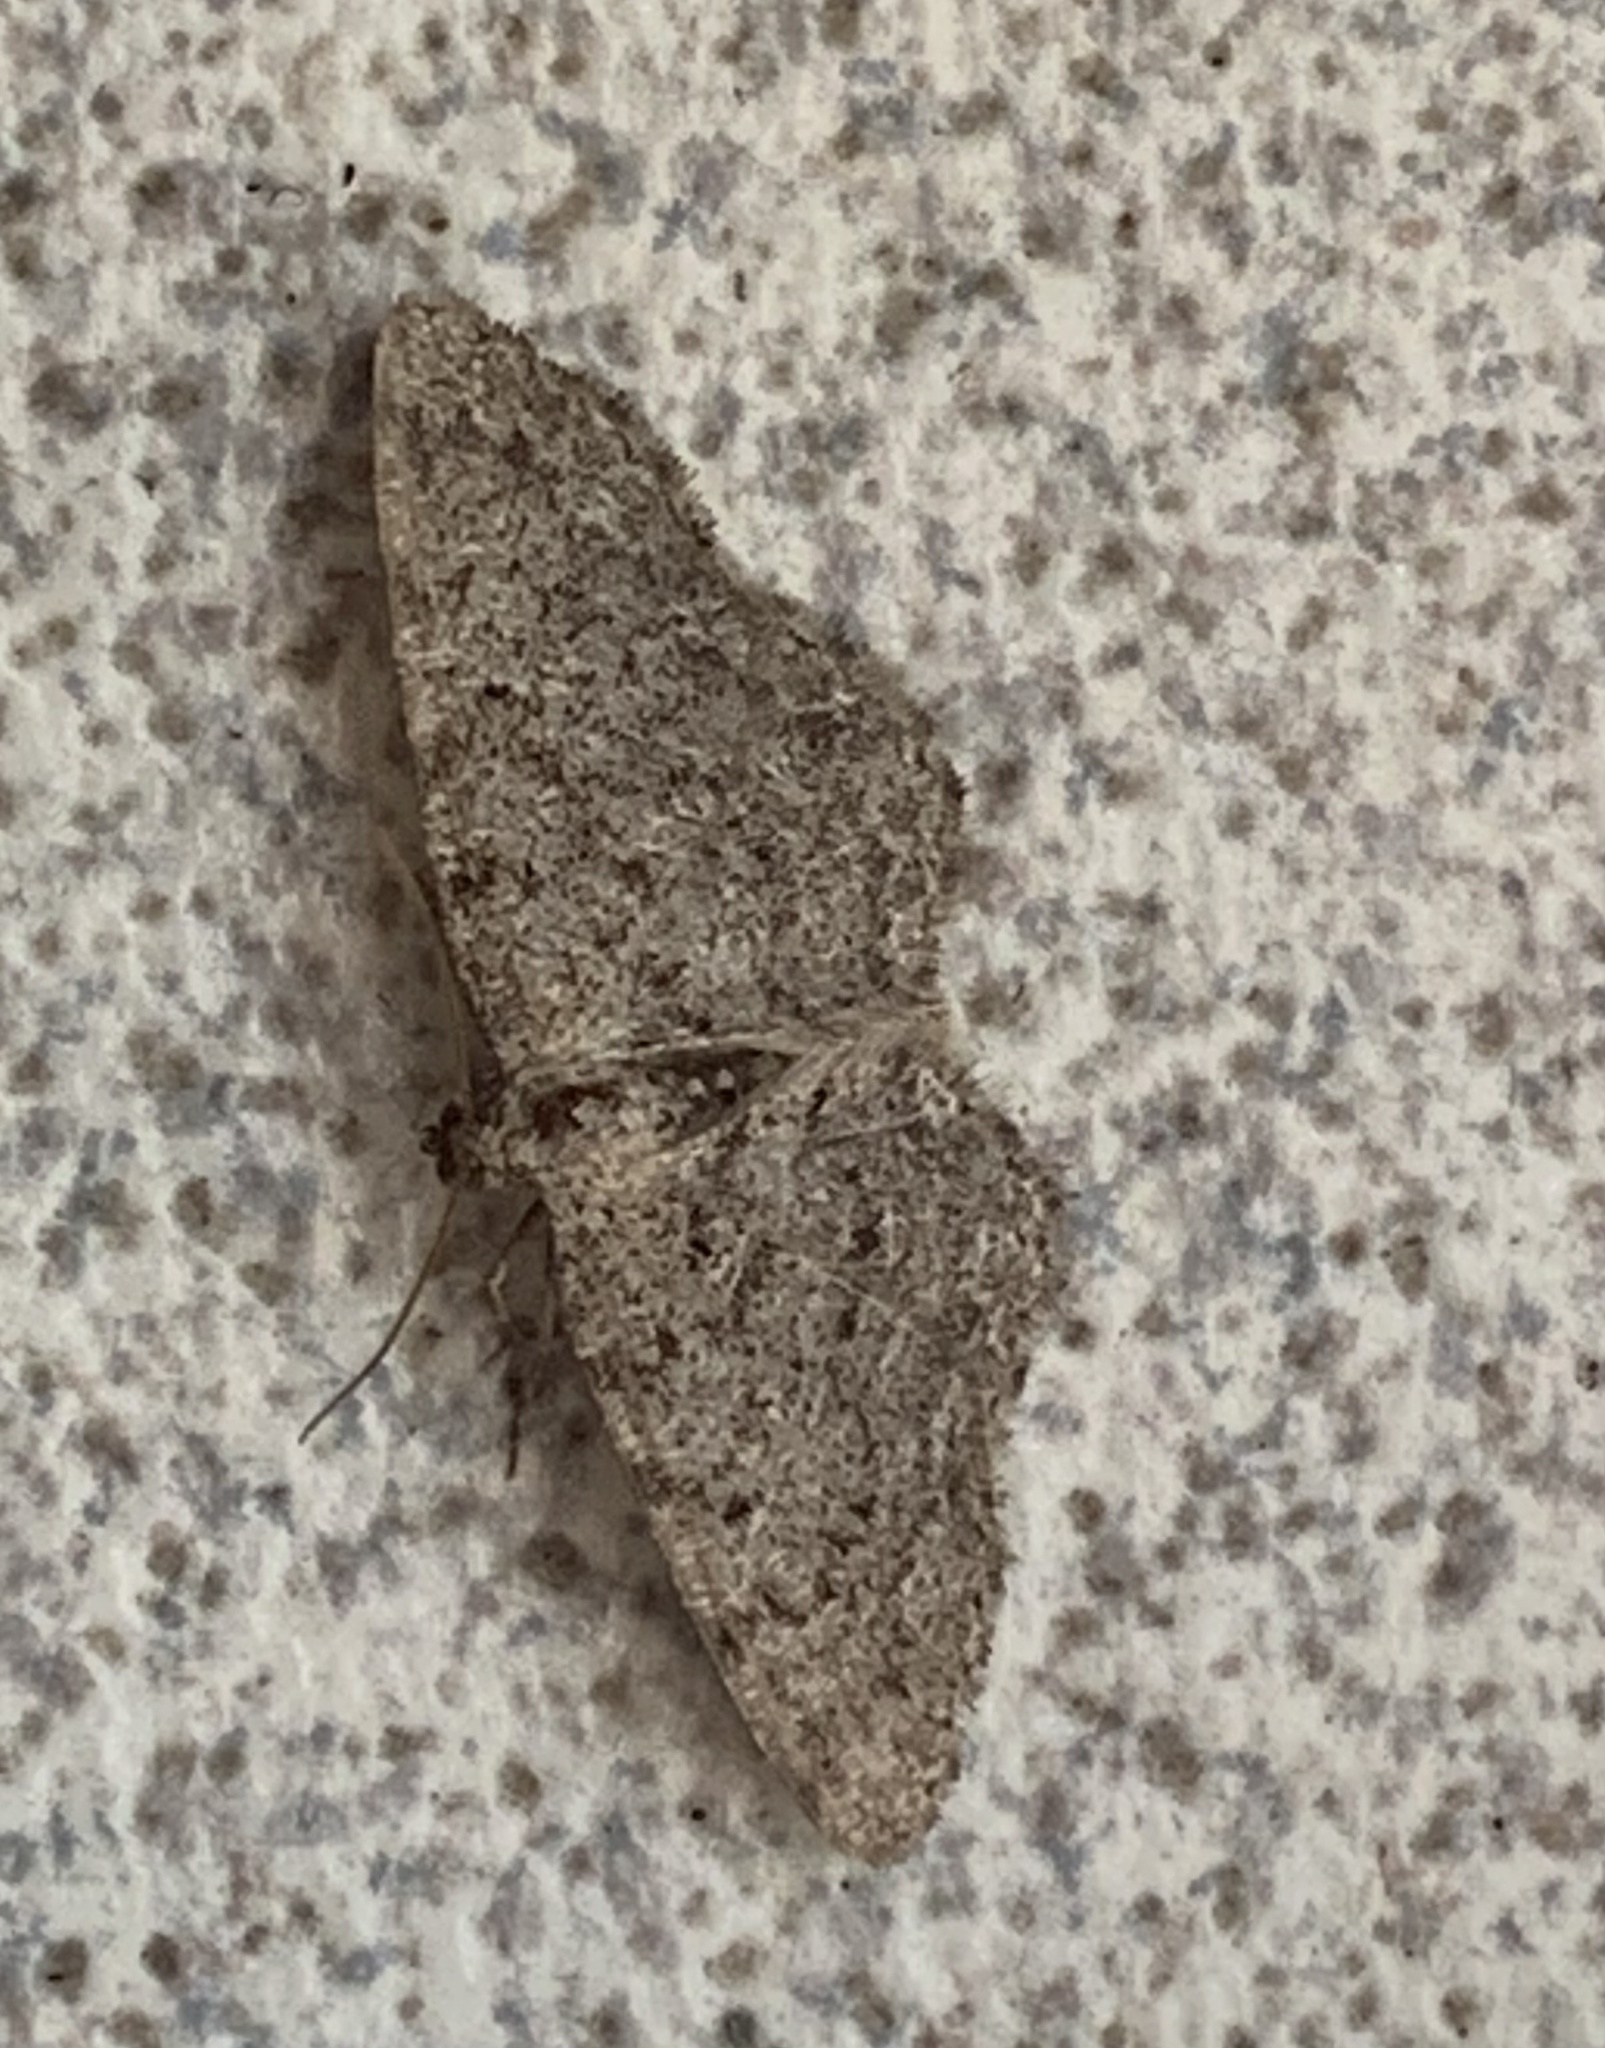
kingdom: Animalia
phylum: Arthropoda
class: Insecta
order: Lepidoptera
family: Geometridae
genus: Aethalura
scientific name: Aethalura intertexta
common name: Four-barred gray
